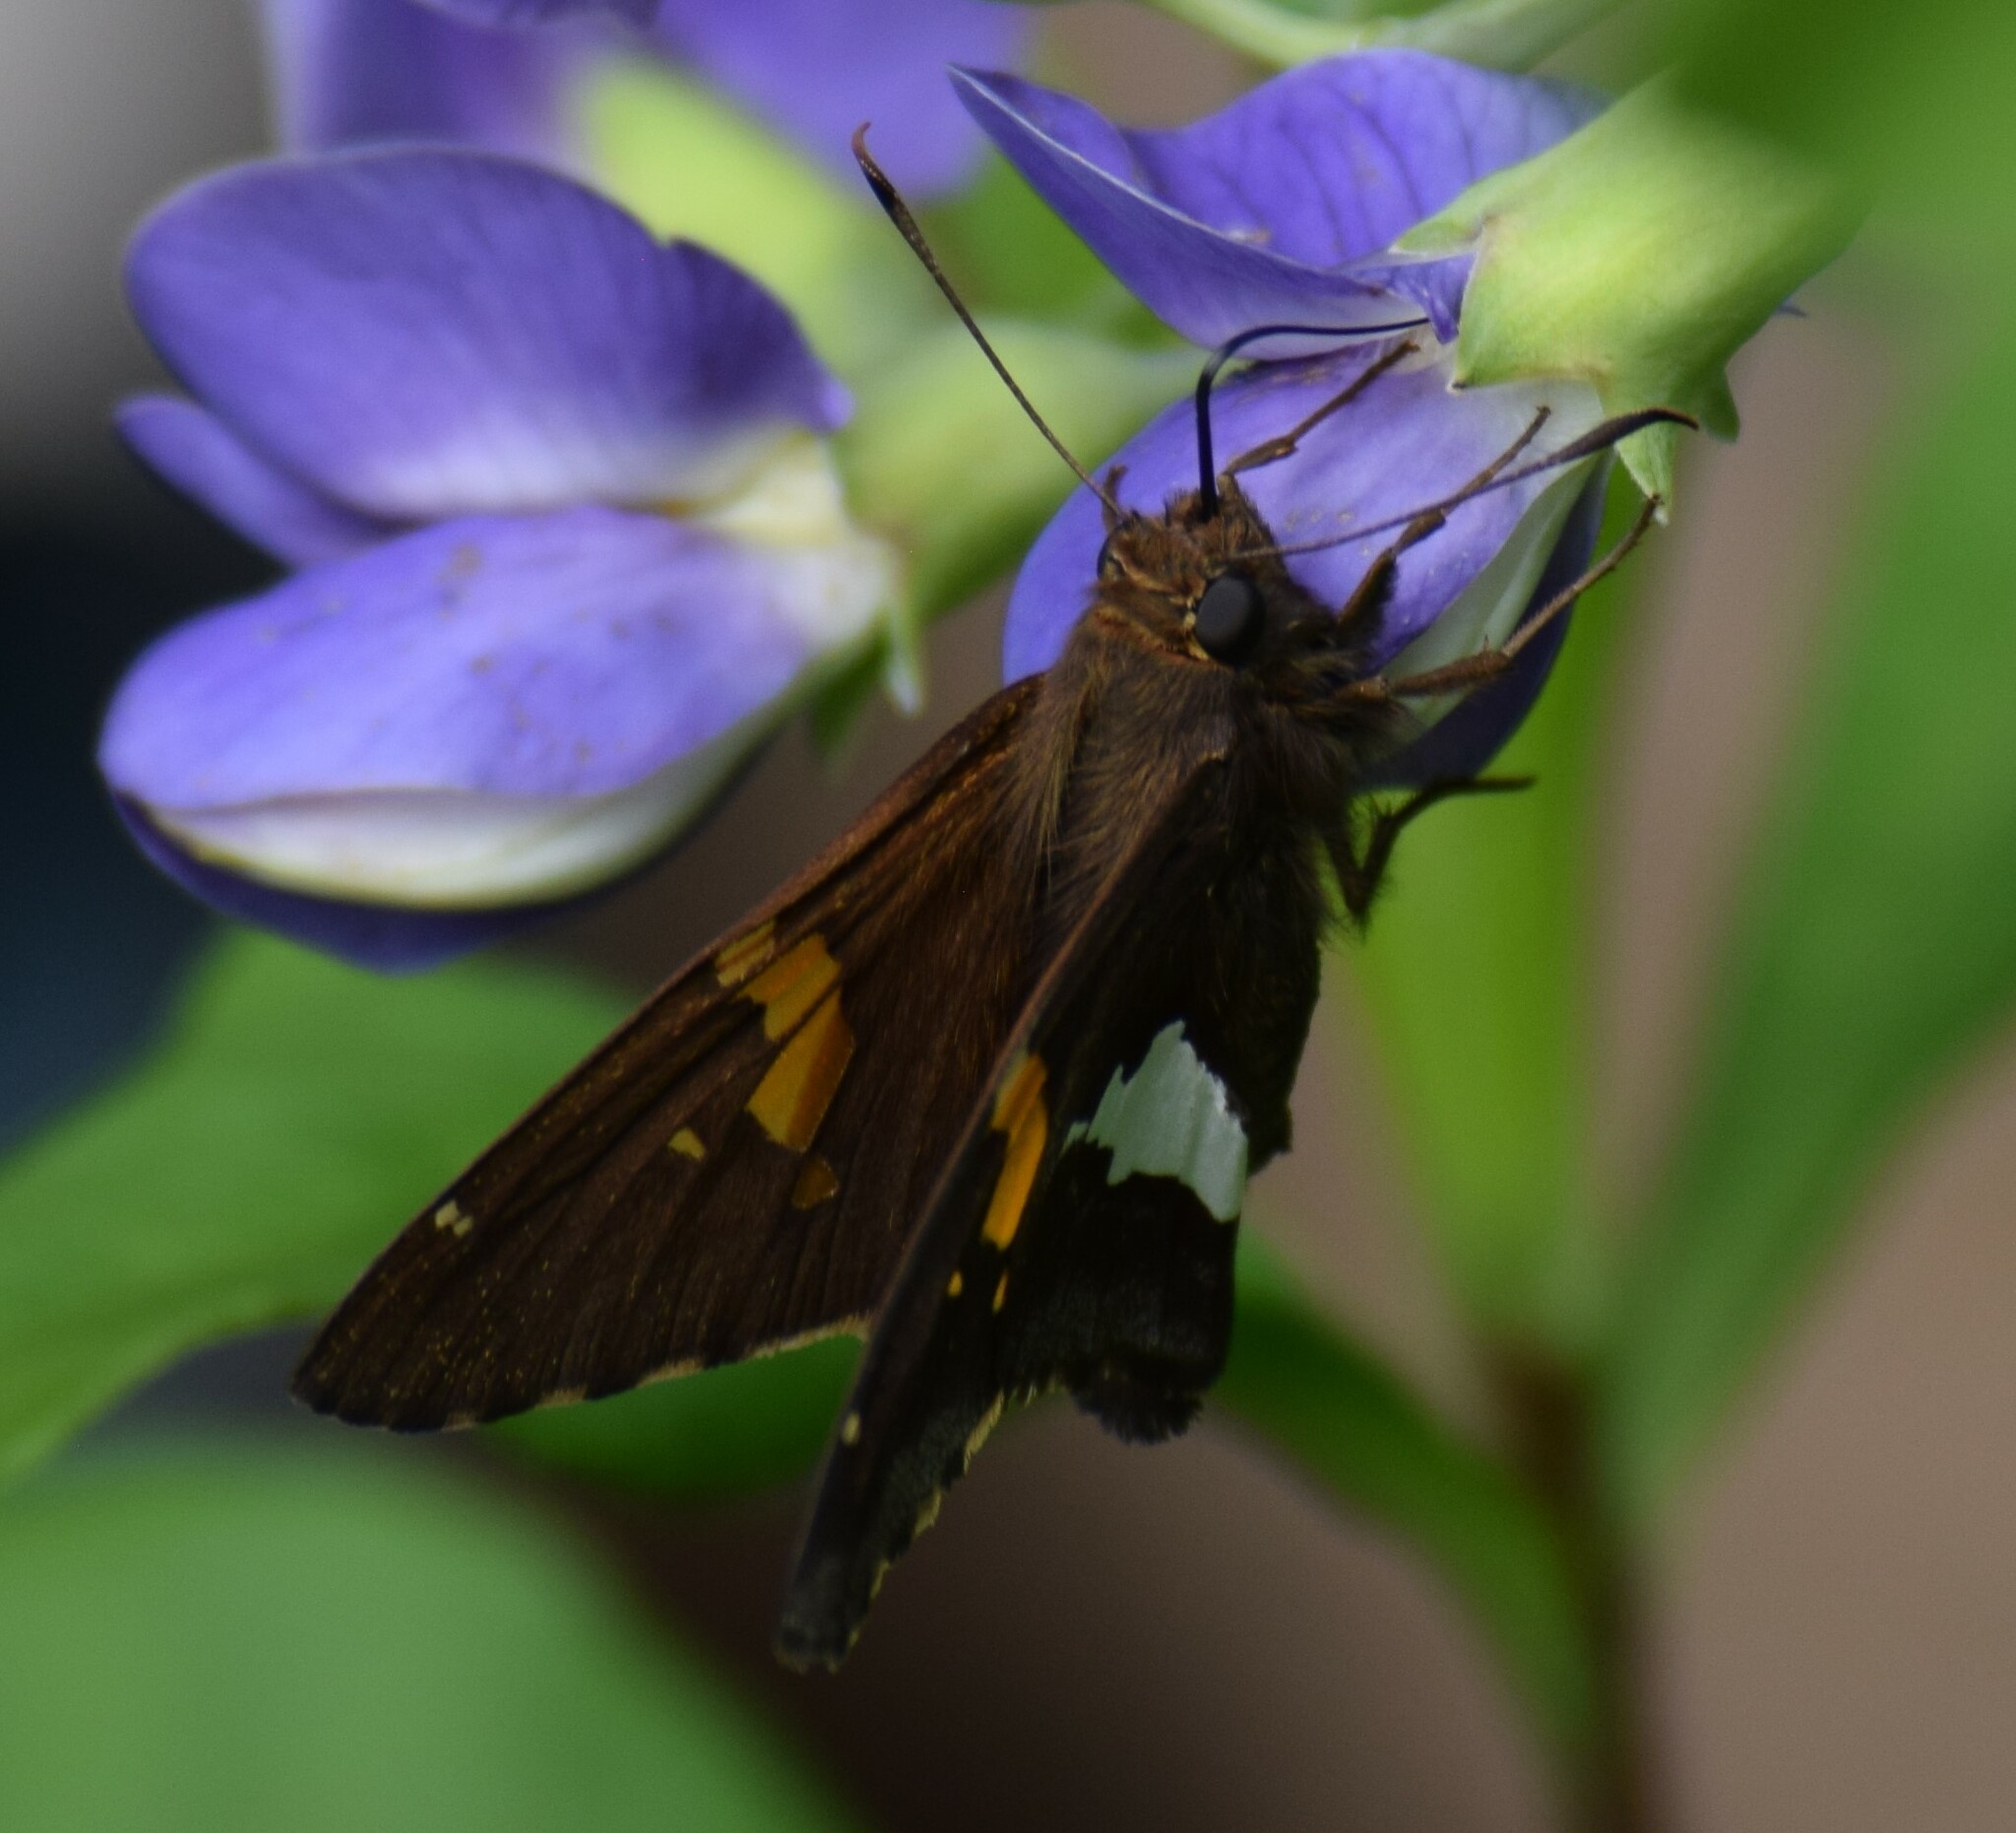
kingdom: Animalia
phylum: Arthropoda
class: Insecta
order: Lepidoptera
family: Hesperiidae
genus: Epargyreus
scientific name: Epargyreus clarus
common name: Silver-spotted skipper
